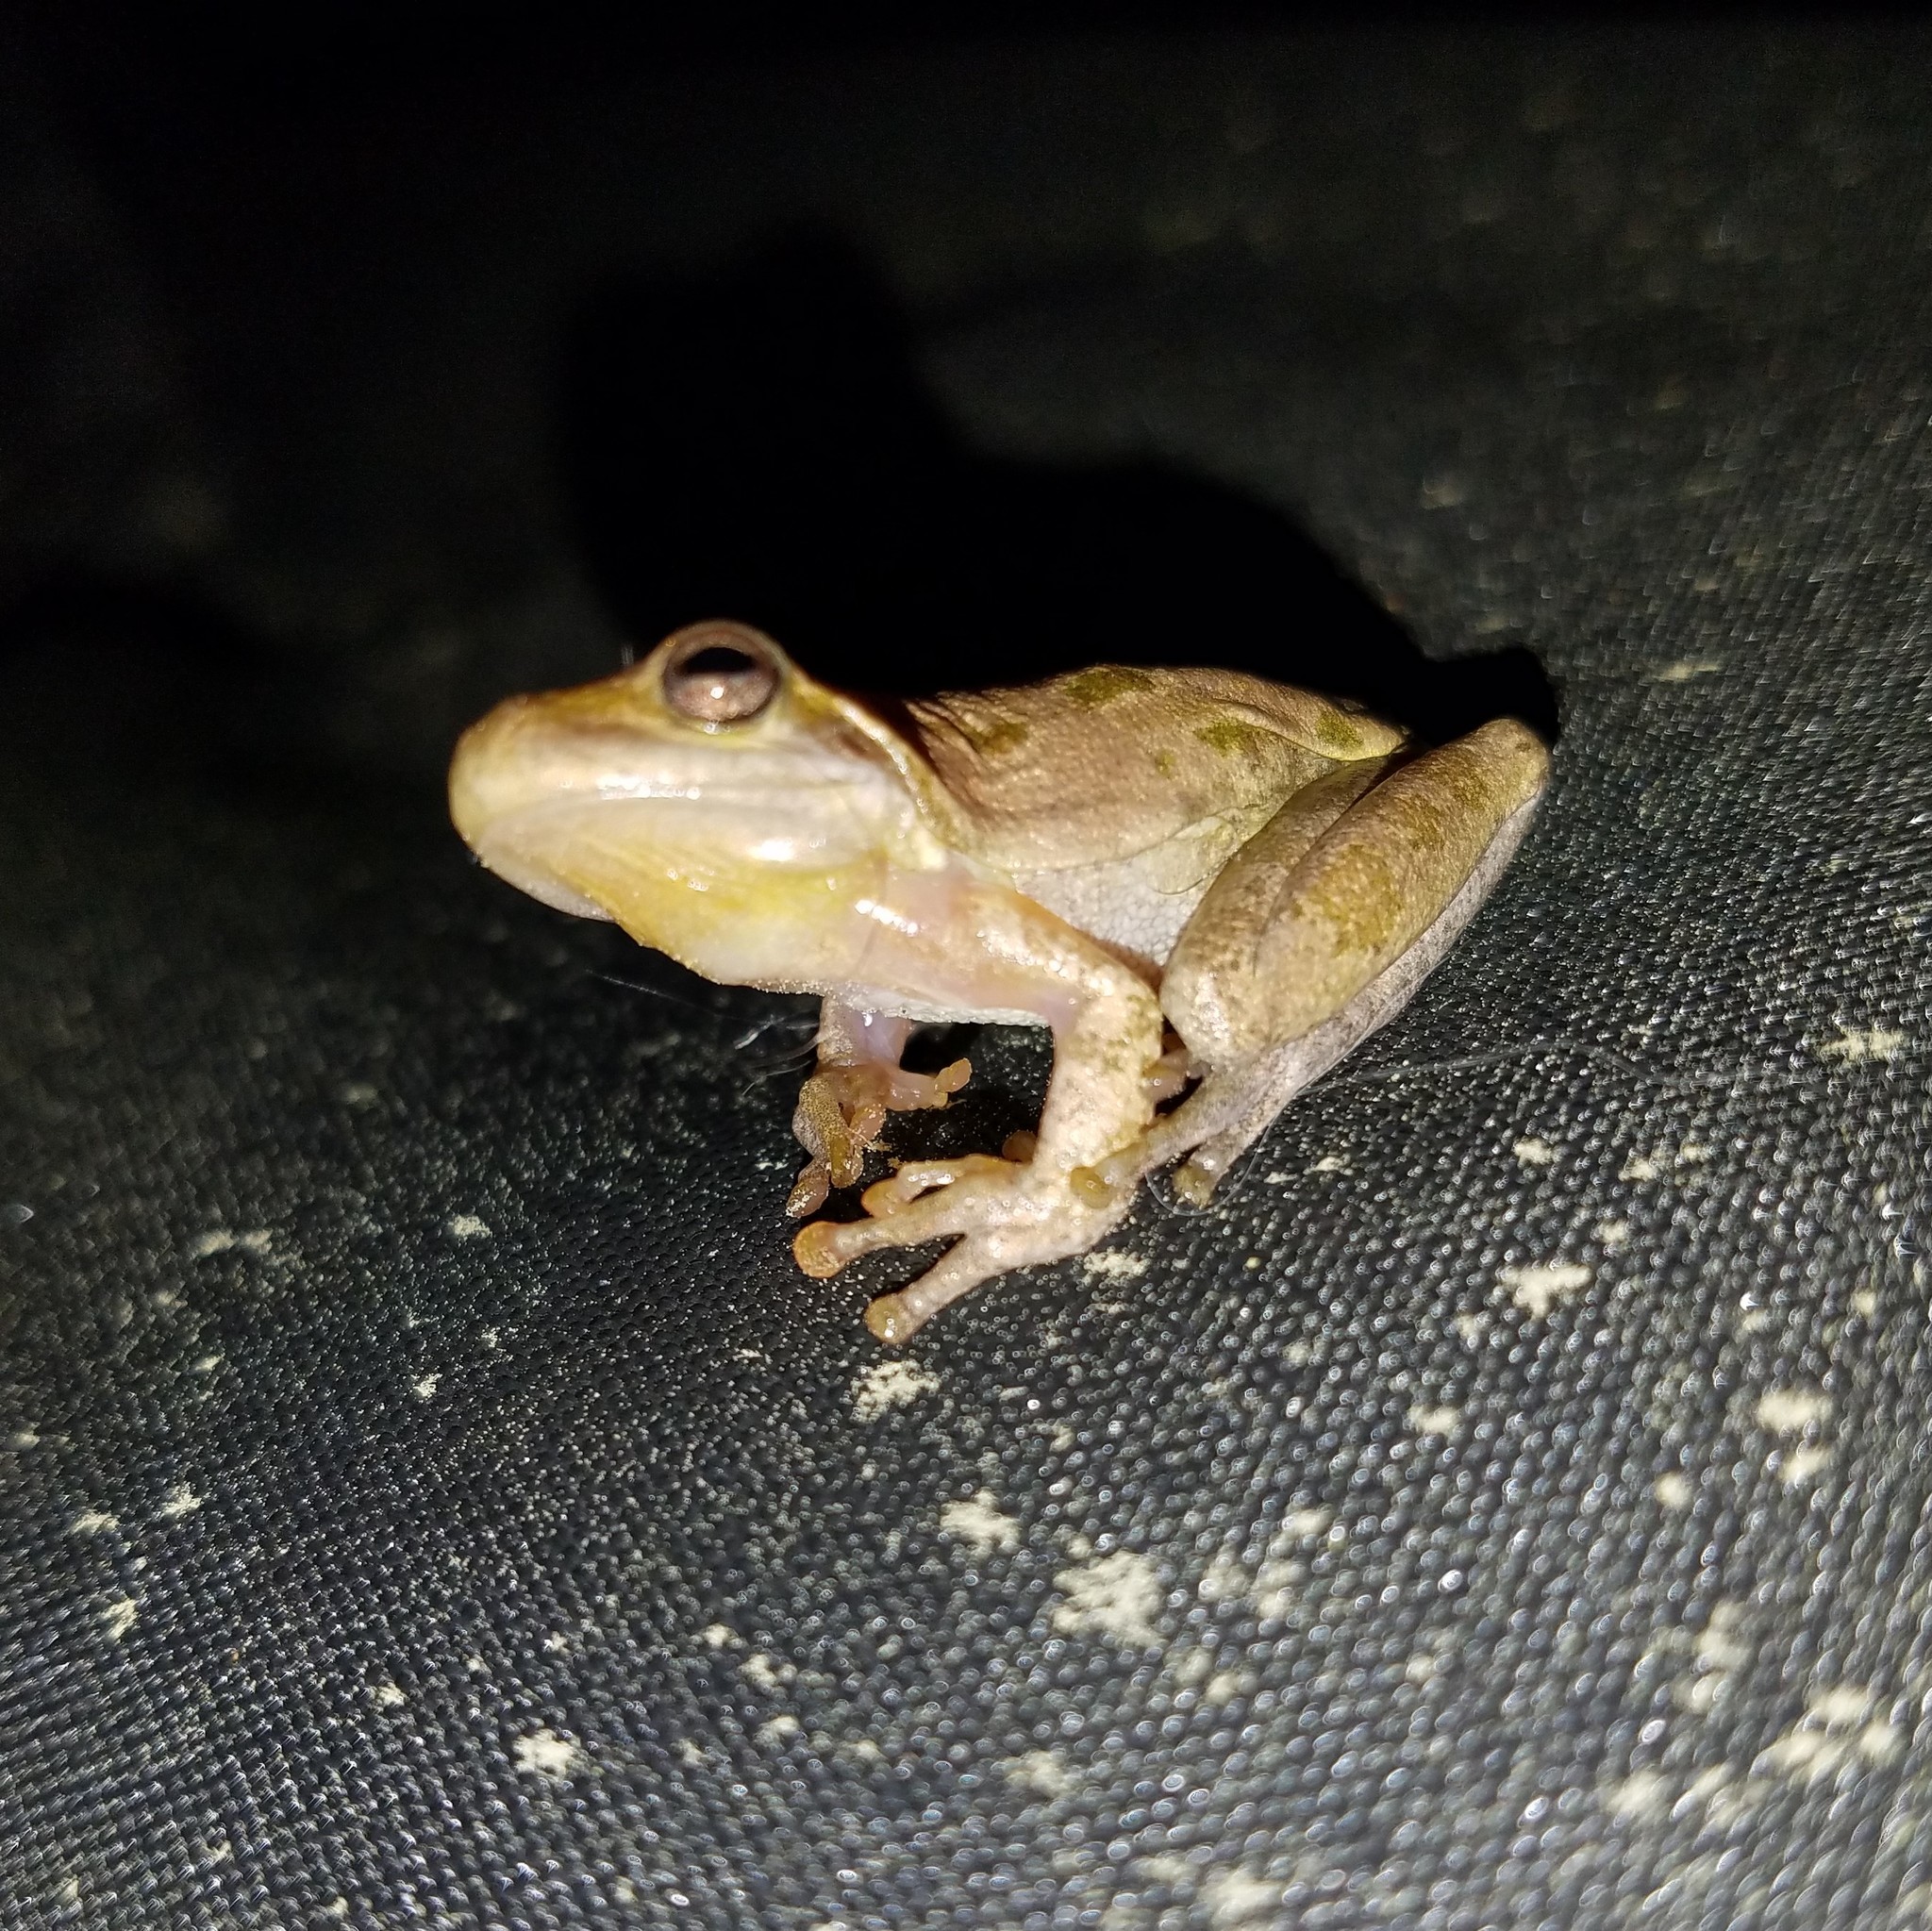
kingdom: Animalia
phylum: Chordata
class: Amphibia
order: Anura
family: Hylidae
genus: Dryophytes
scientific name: Dryophytes squirellus
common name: Squirrel treefrog
